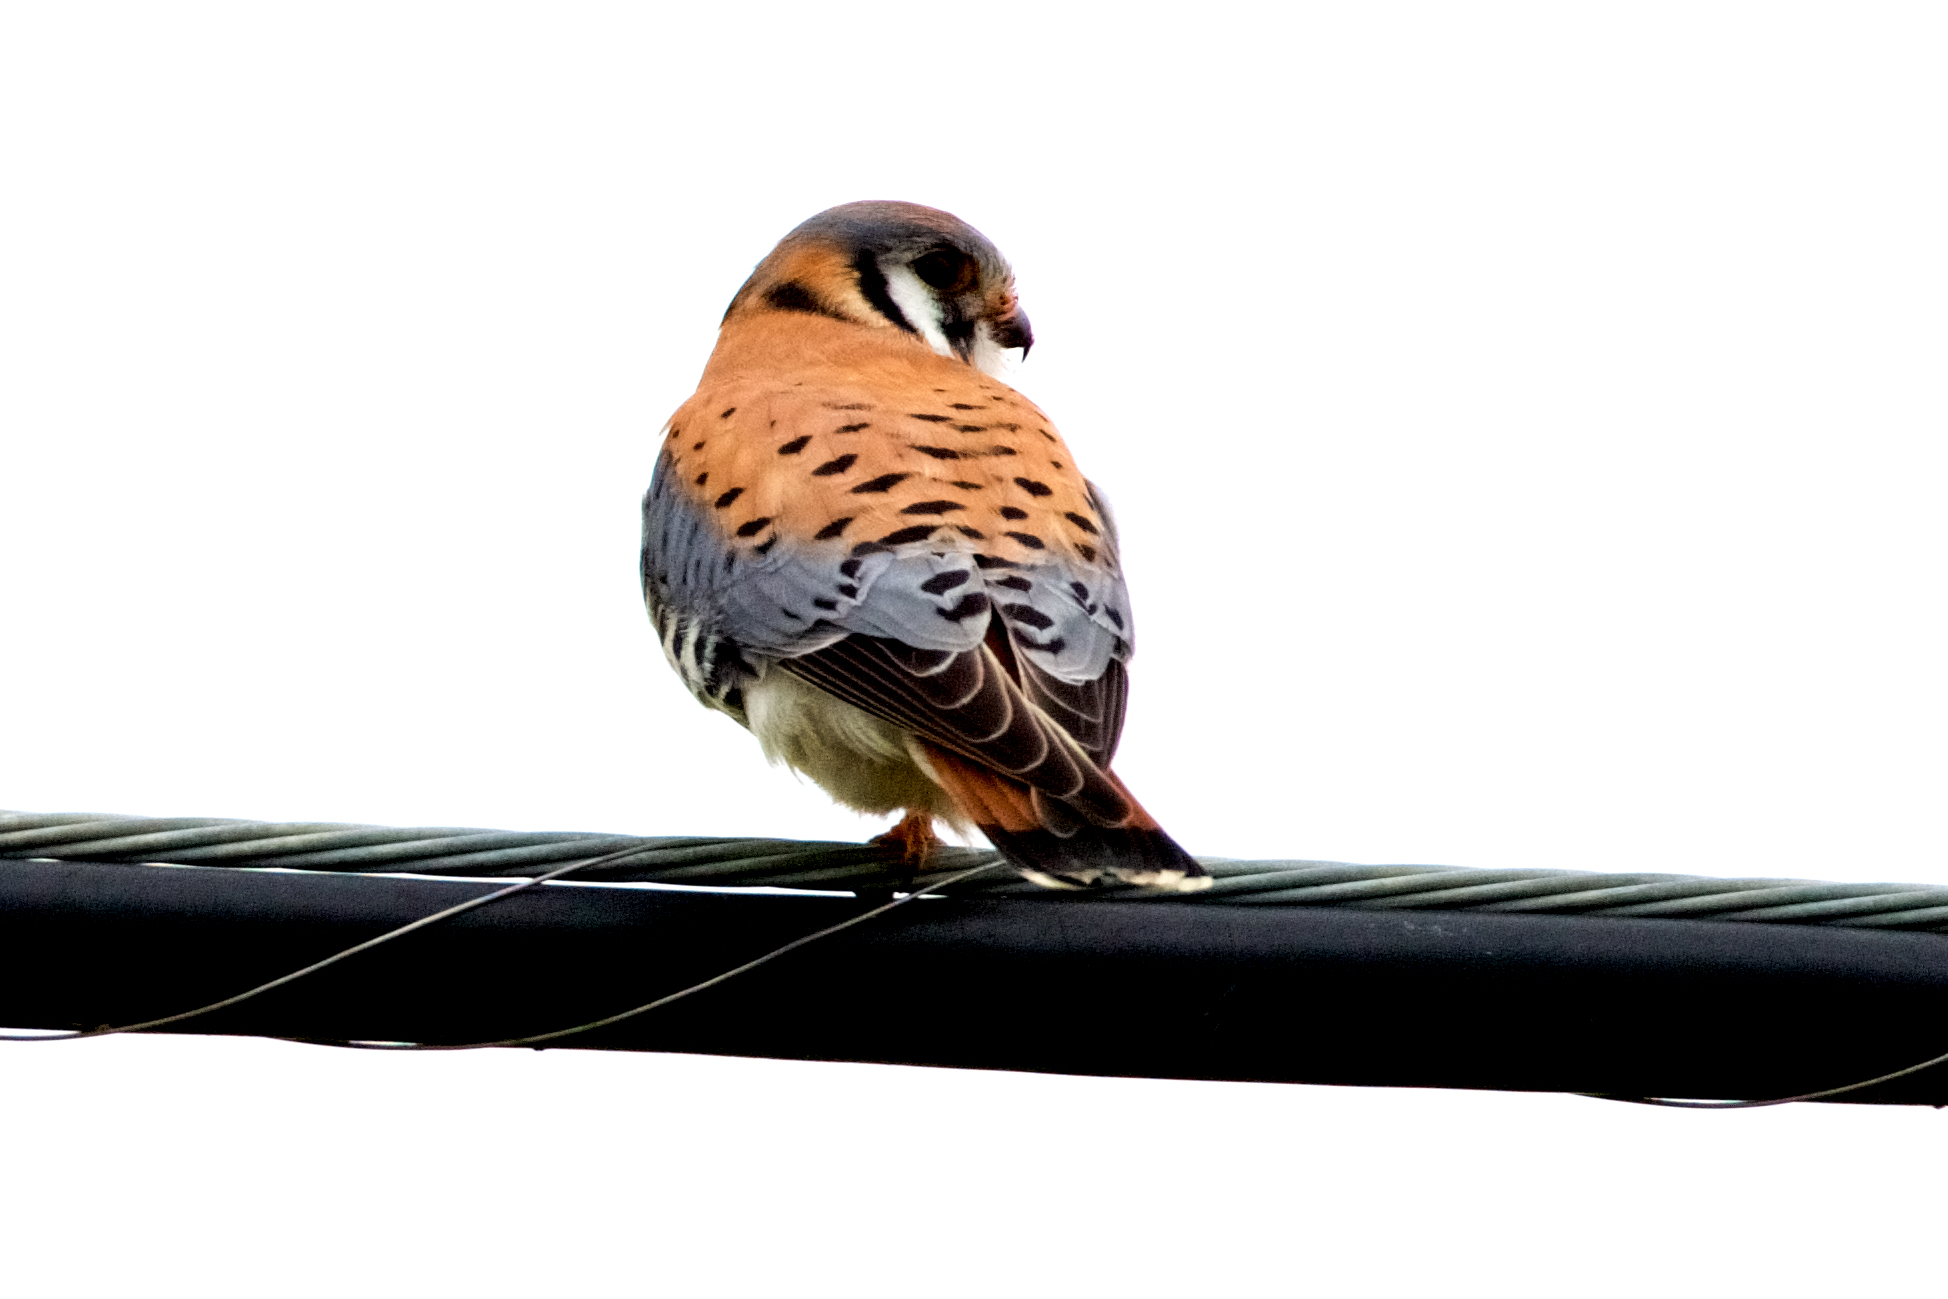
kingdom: Animalia
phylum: Chordata
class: Aves
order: Falconiformes
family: Falconidae
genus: Falco
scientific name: Falco sparverius
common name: American kestrel
